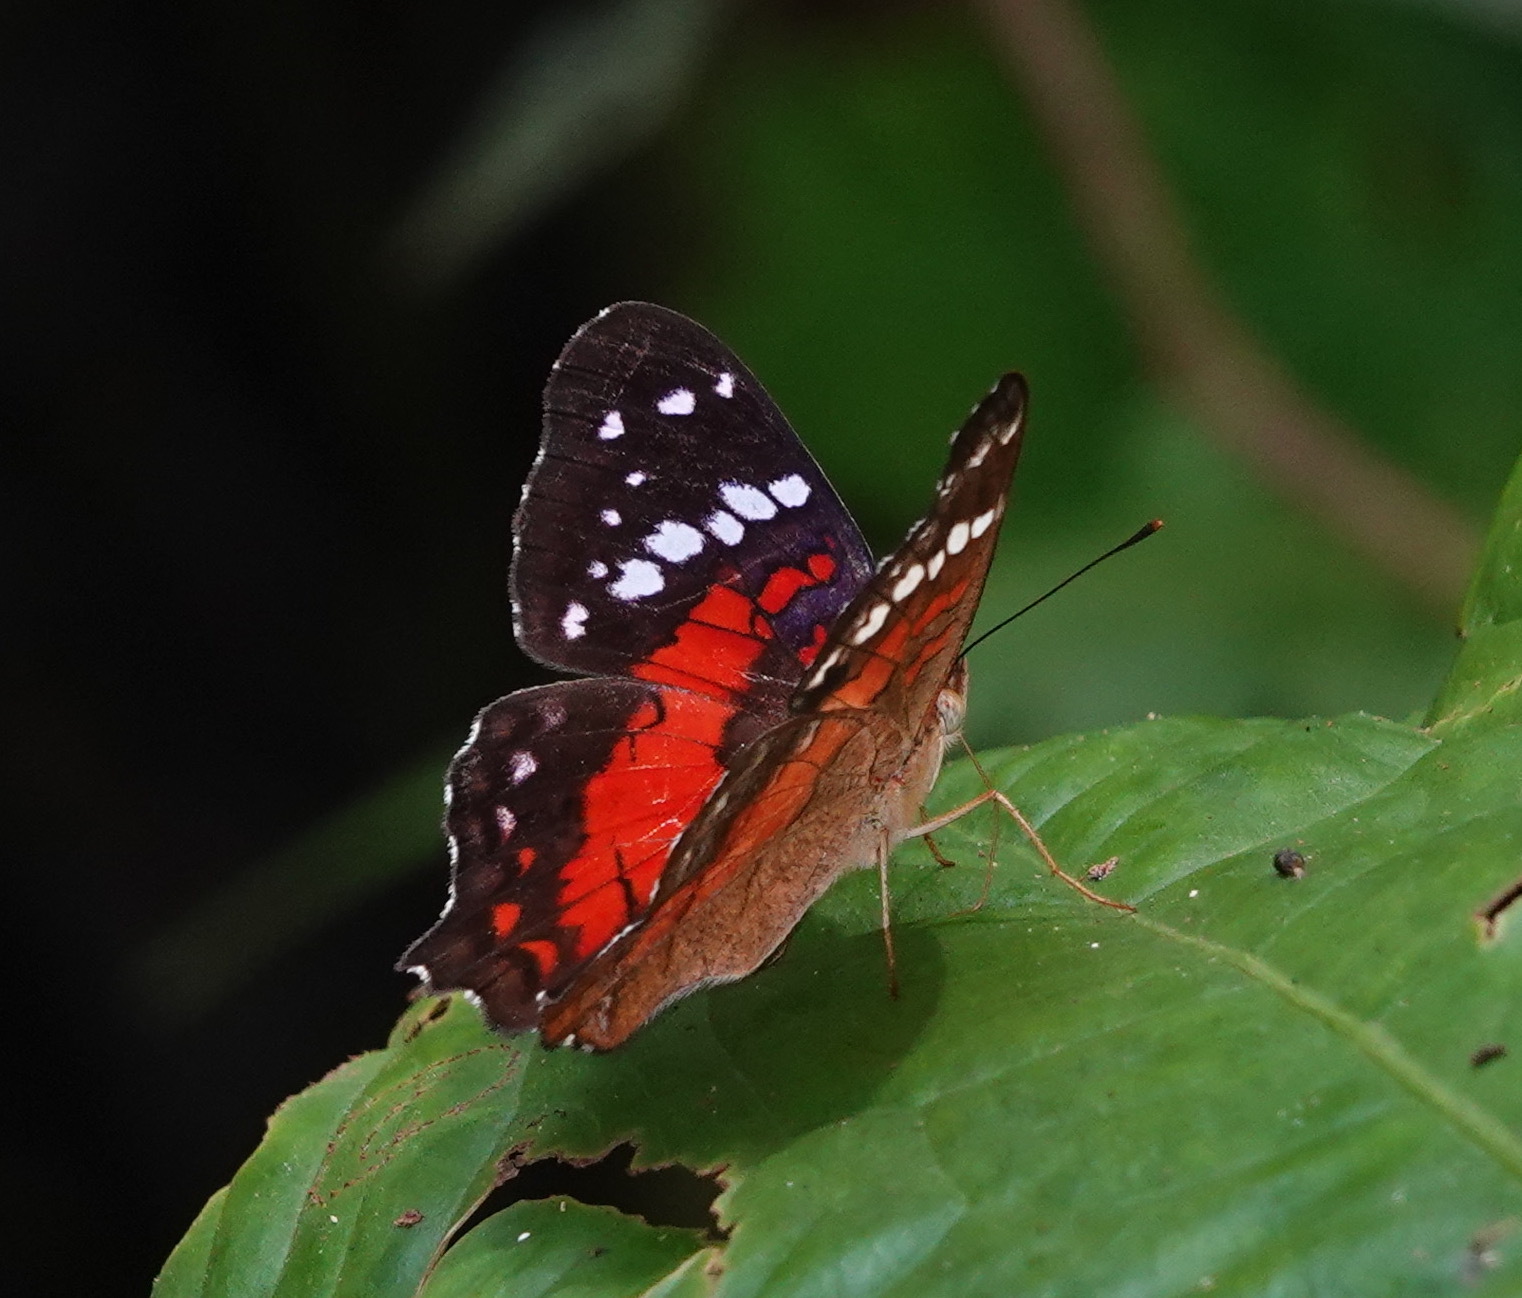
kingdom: Animalia
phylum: Arthropoda
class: Insecta
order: Lepidoptera
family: Nymphalidae
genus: Anartia
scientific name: Anartia amathea
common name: Red peacock
